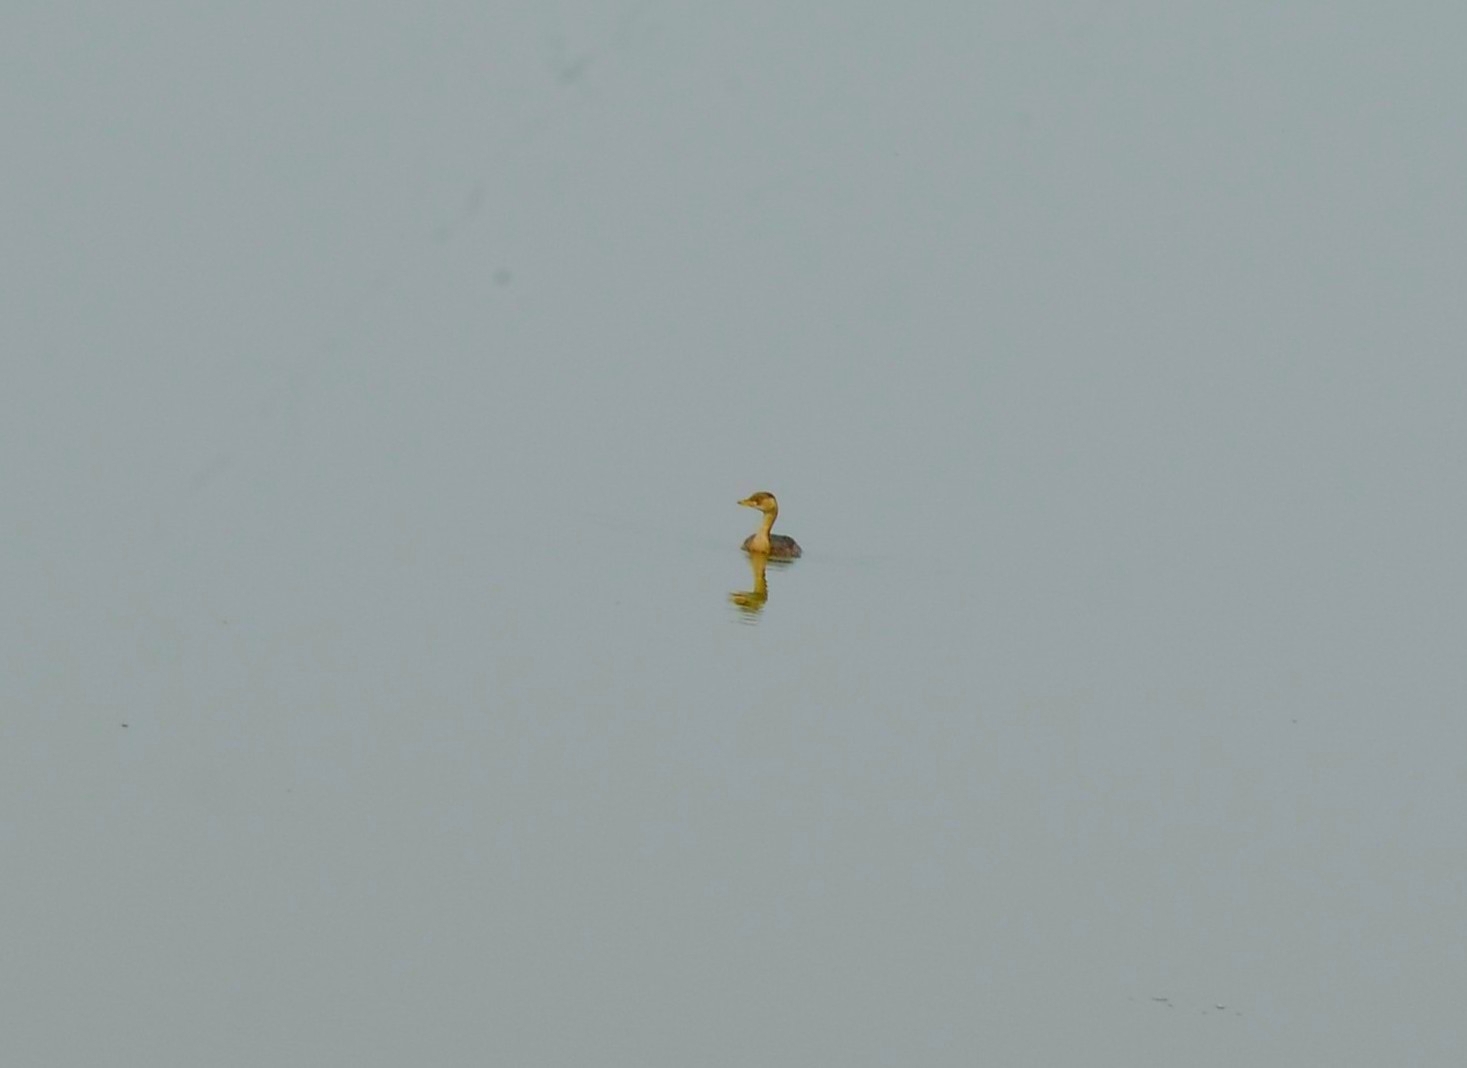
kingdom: Animalia
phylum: Chordata
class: Aves
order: Podicipediformes
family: Podicipedidae
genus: Tachybaptus
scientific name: Tachybaptus ruficollis
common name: Little grebe
